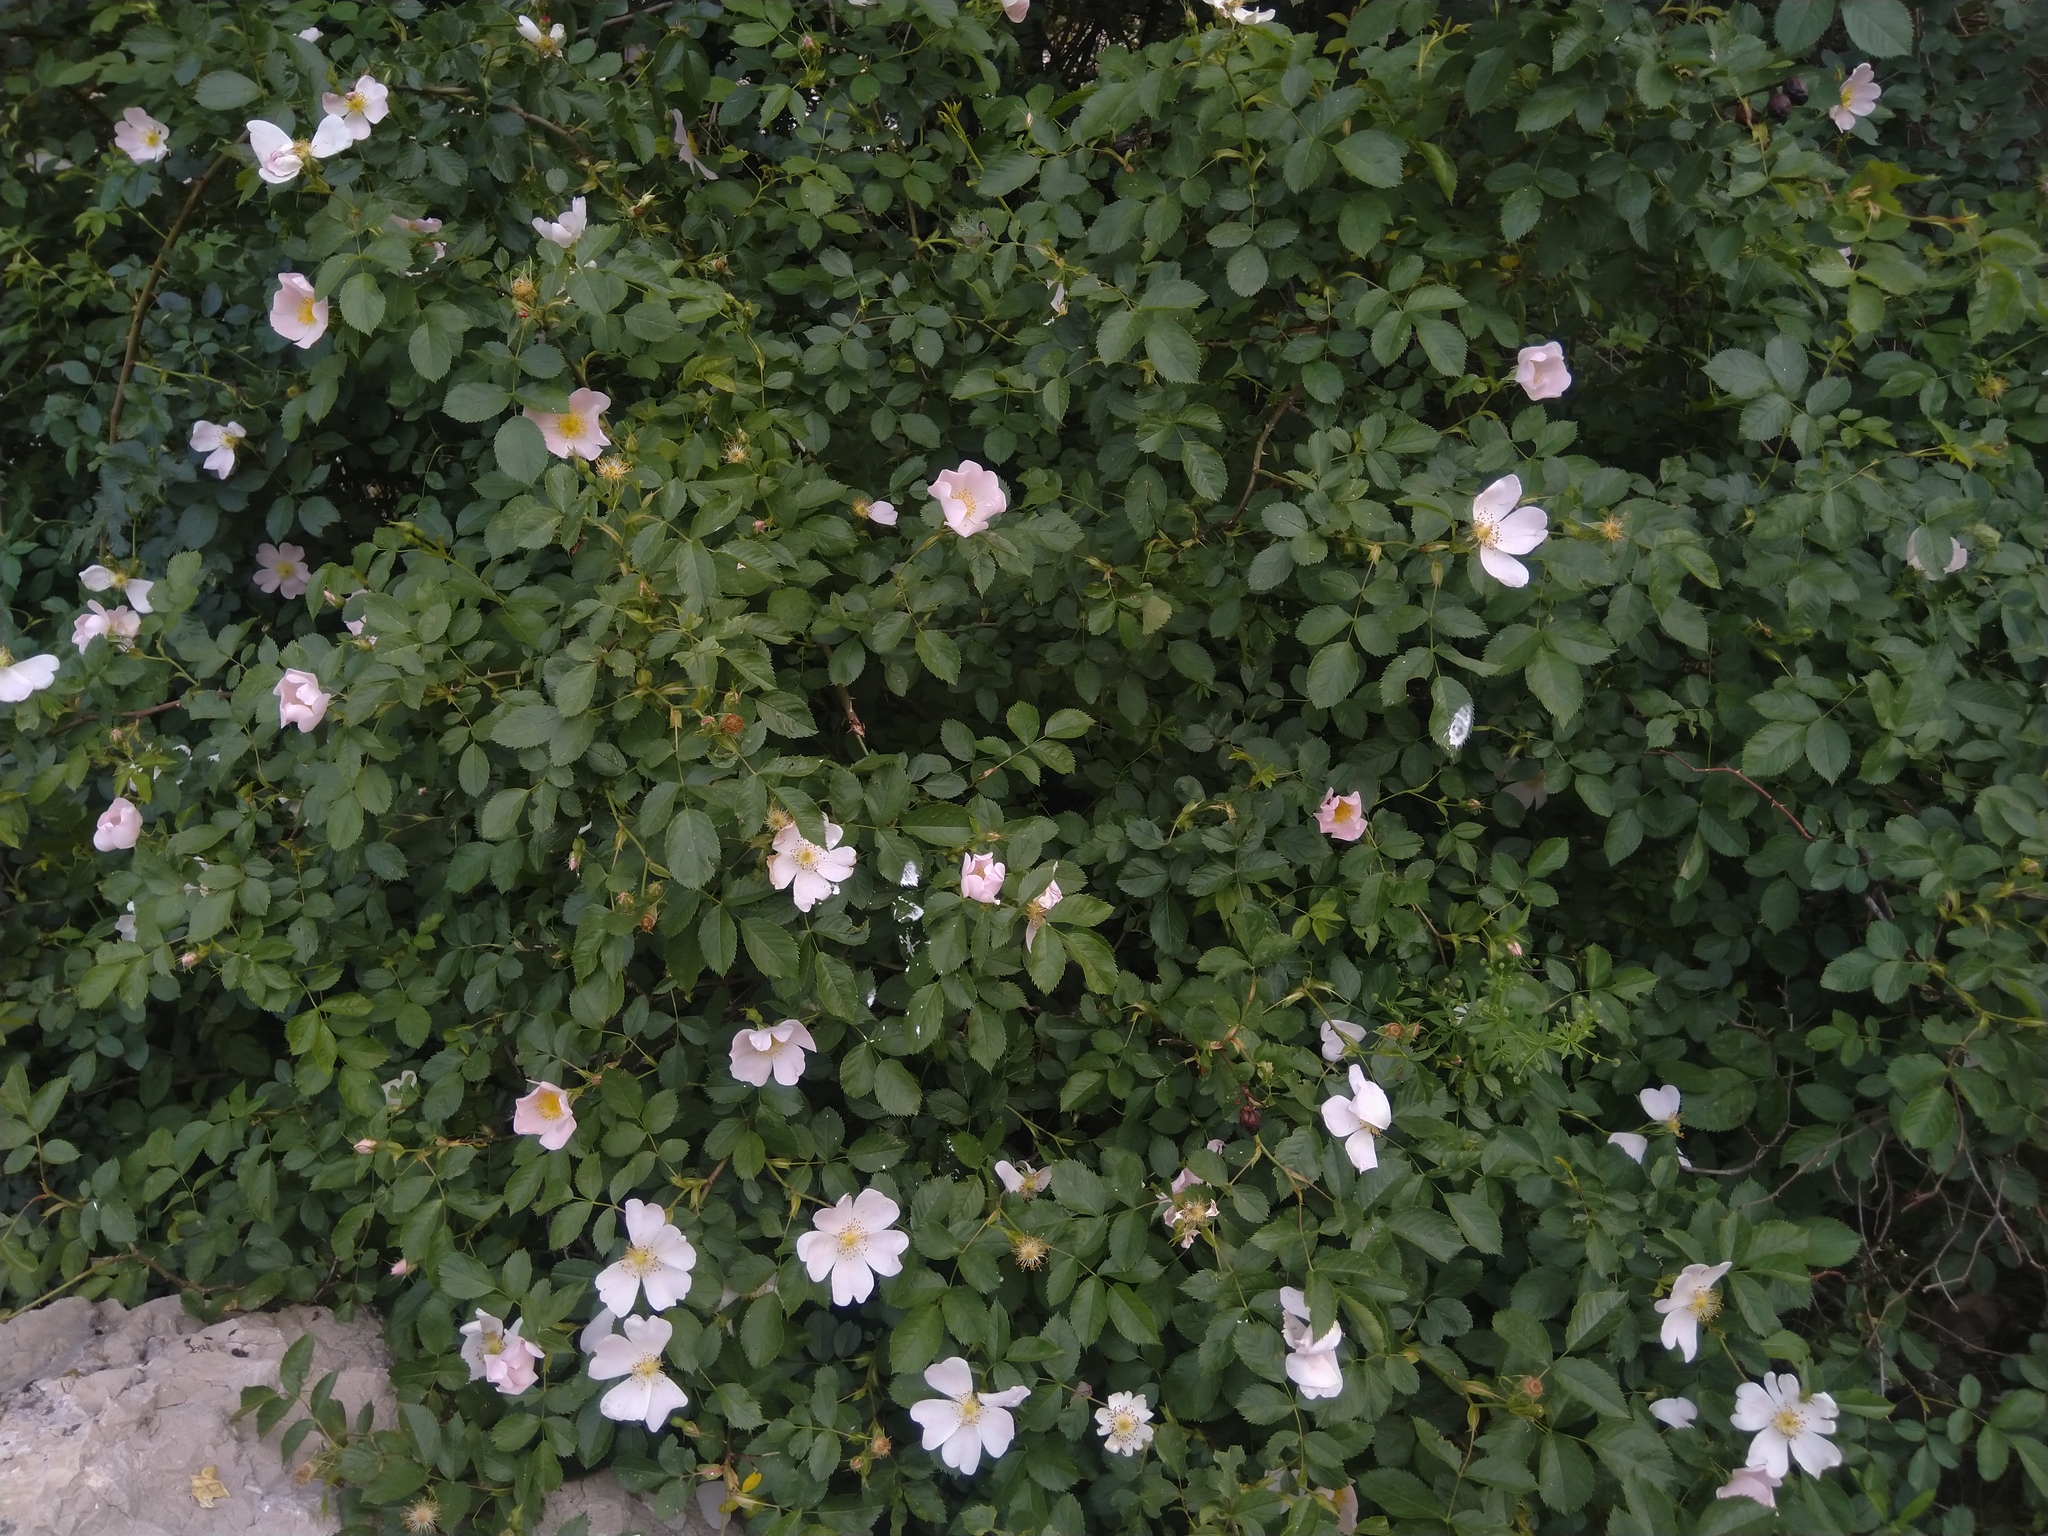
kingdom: Plantae
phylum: Tracheophyta
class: Magnoliopsida
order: Rosales
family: Rosaceae
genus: Rosa
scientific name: Rosa canina
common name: Dog rose
